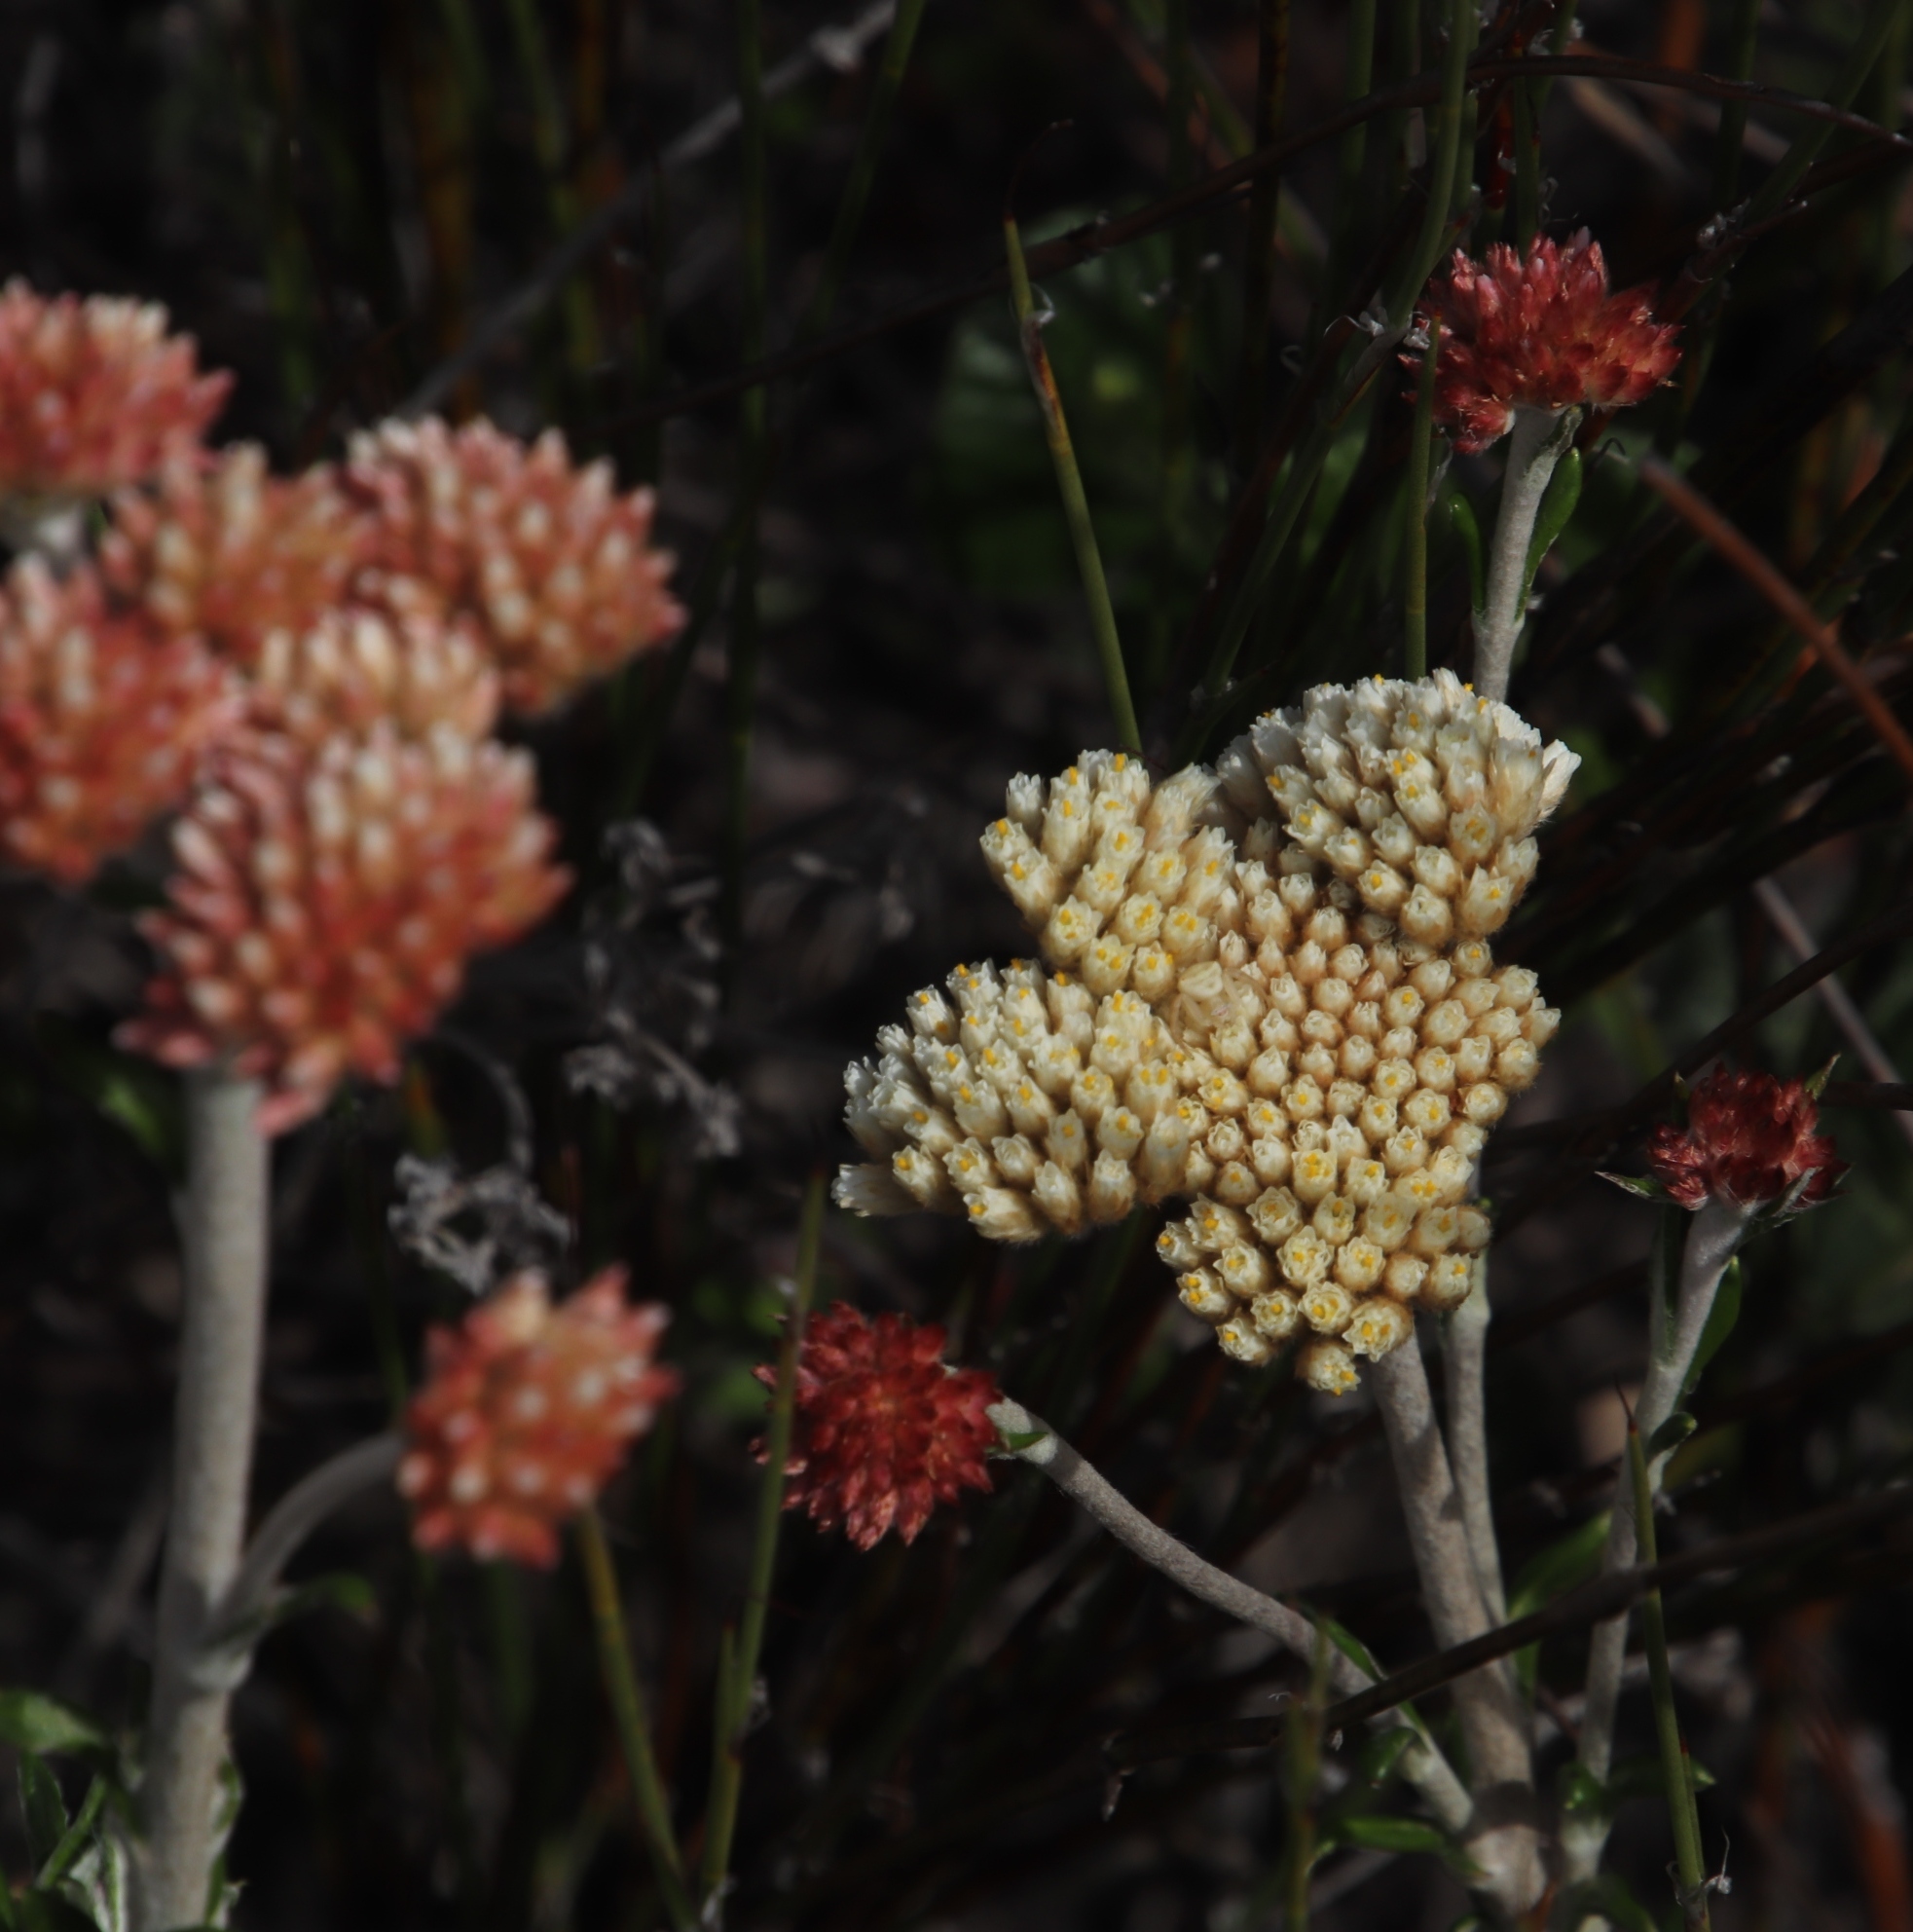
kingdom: Plantae
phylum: Tracheophyta
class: Magnoliopsida
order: Asterales
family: Asteraceae
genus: Anaxeton
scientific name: Anaxeton laeve
